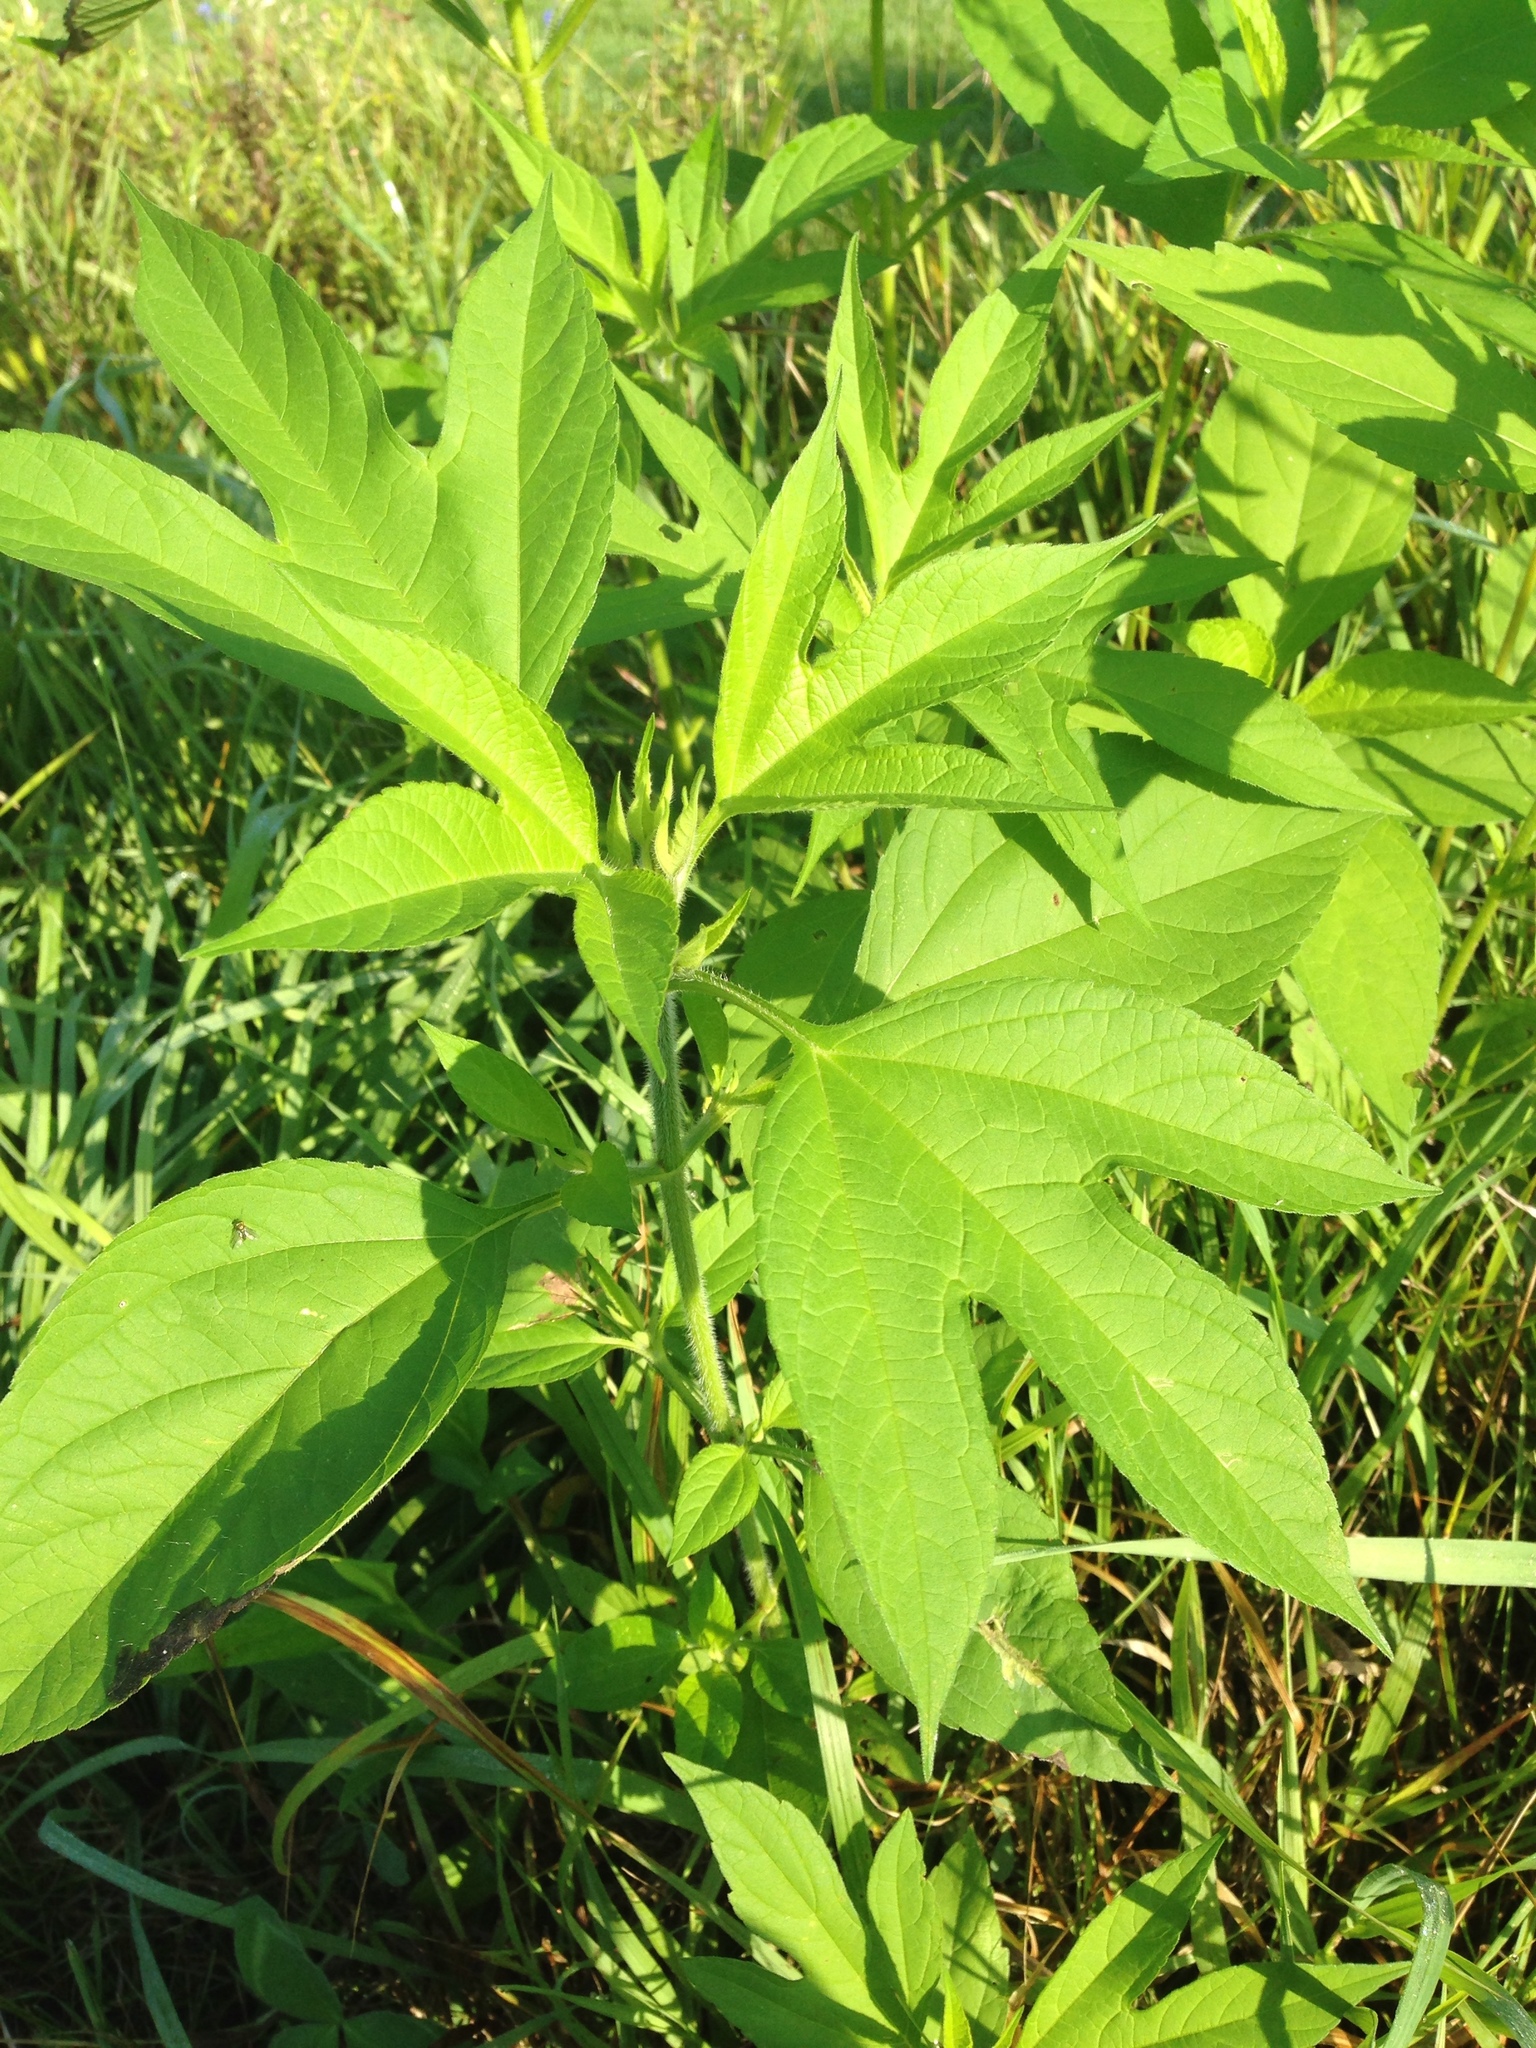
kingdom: Plantae
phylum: Tracheophyta
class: Magnoliopsida
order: Asterales
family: Asteraceae
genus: Ambrosia
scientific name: Ambrosia trifida
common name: Giant ragweed
